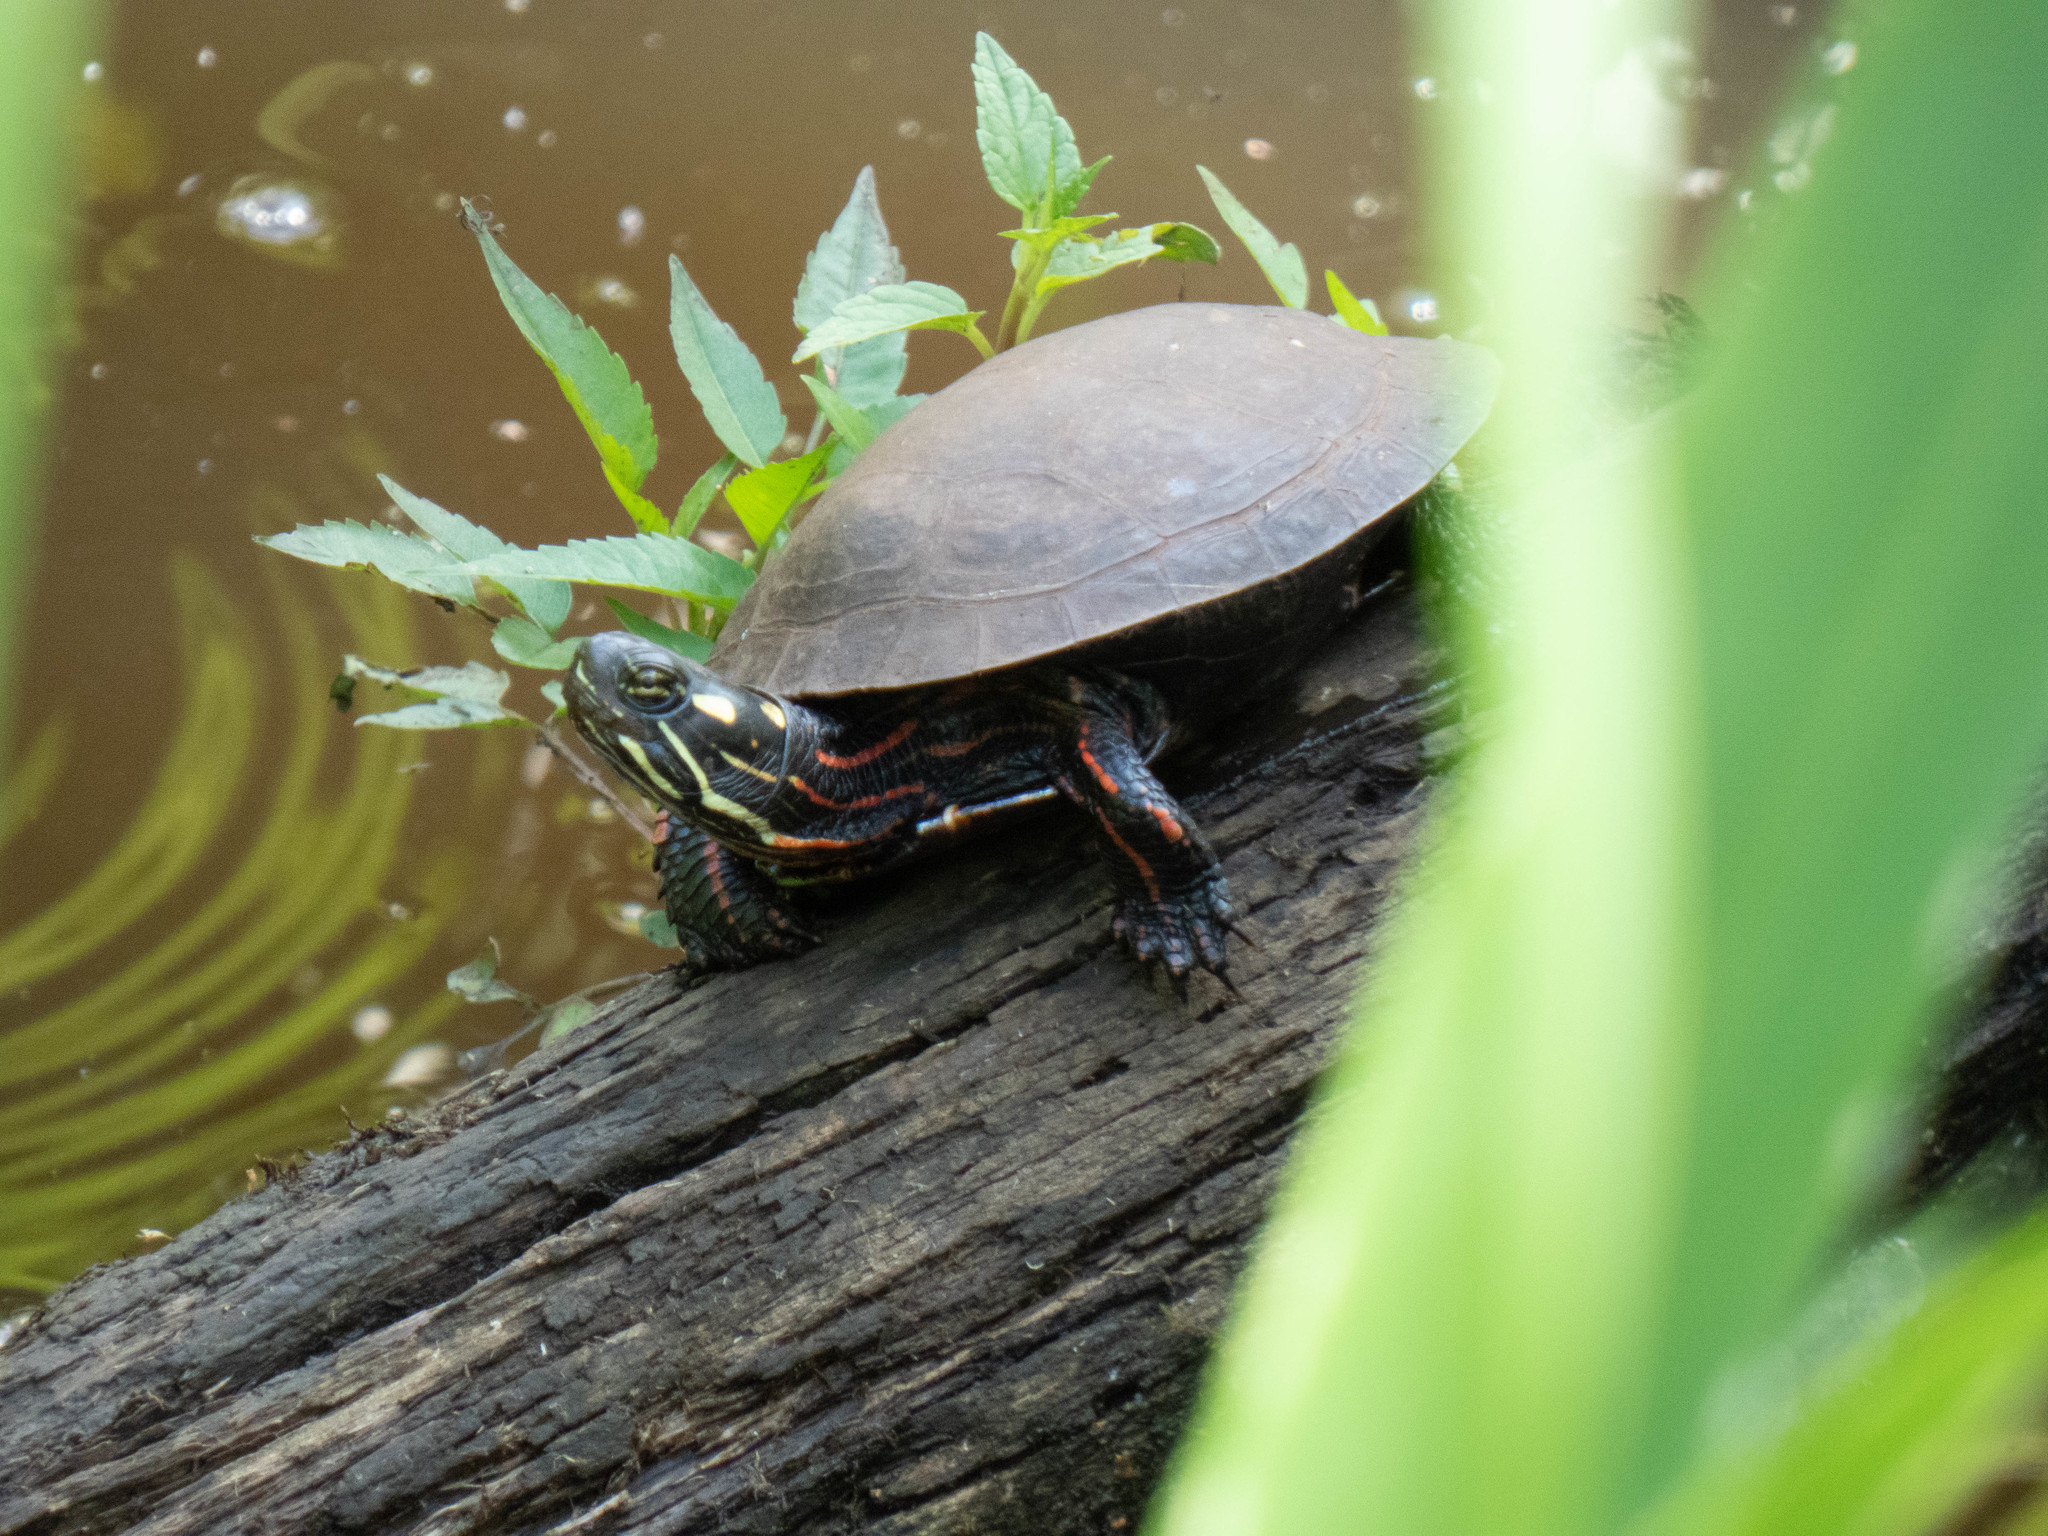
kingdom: Animalia
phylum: Chordata
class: Testudines
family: Emydidae
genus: Chrysemys
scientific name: Chrysemys picta
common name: Painted turtle
